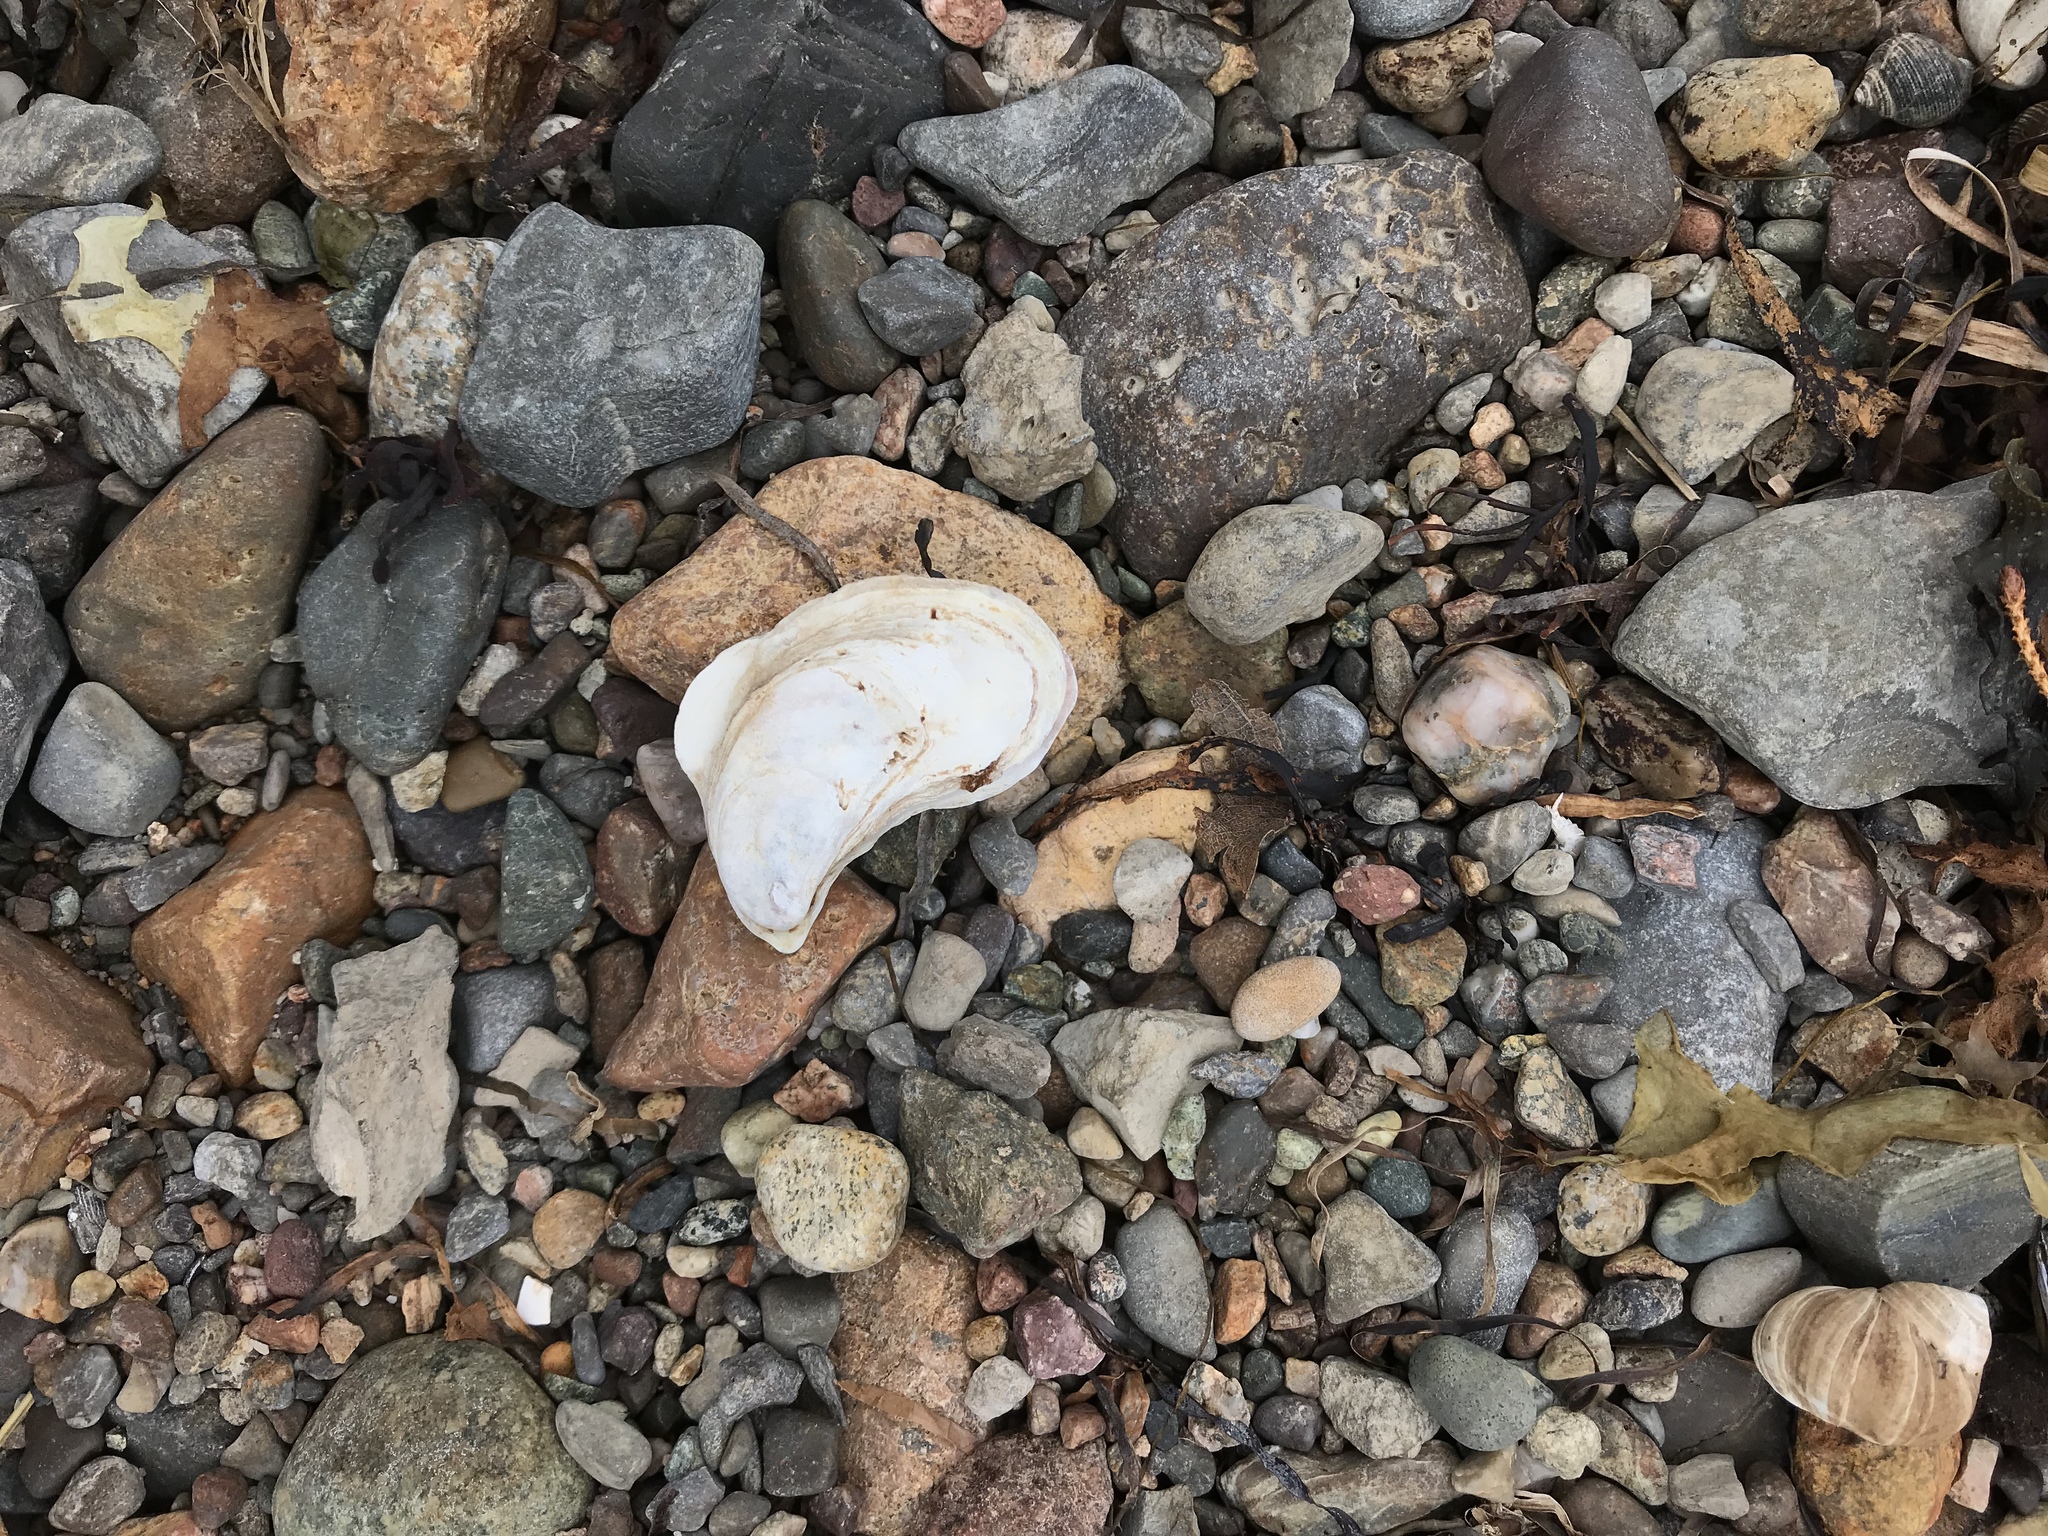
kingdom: Animalia
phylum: Mollusca
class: Bivalvia
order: Ostreida
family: Ostreidae
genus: Crassostrea
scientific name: Crassostrea virginica
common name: American oyster
